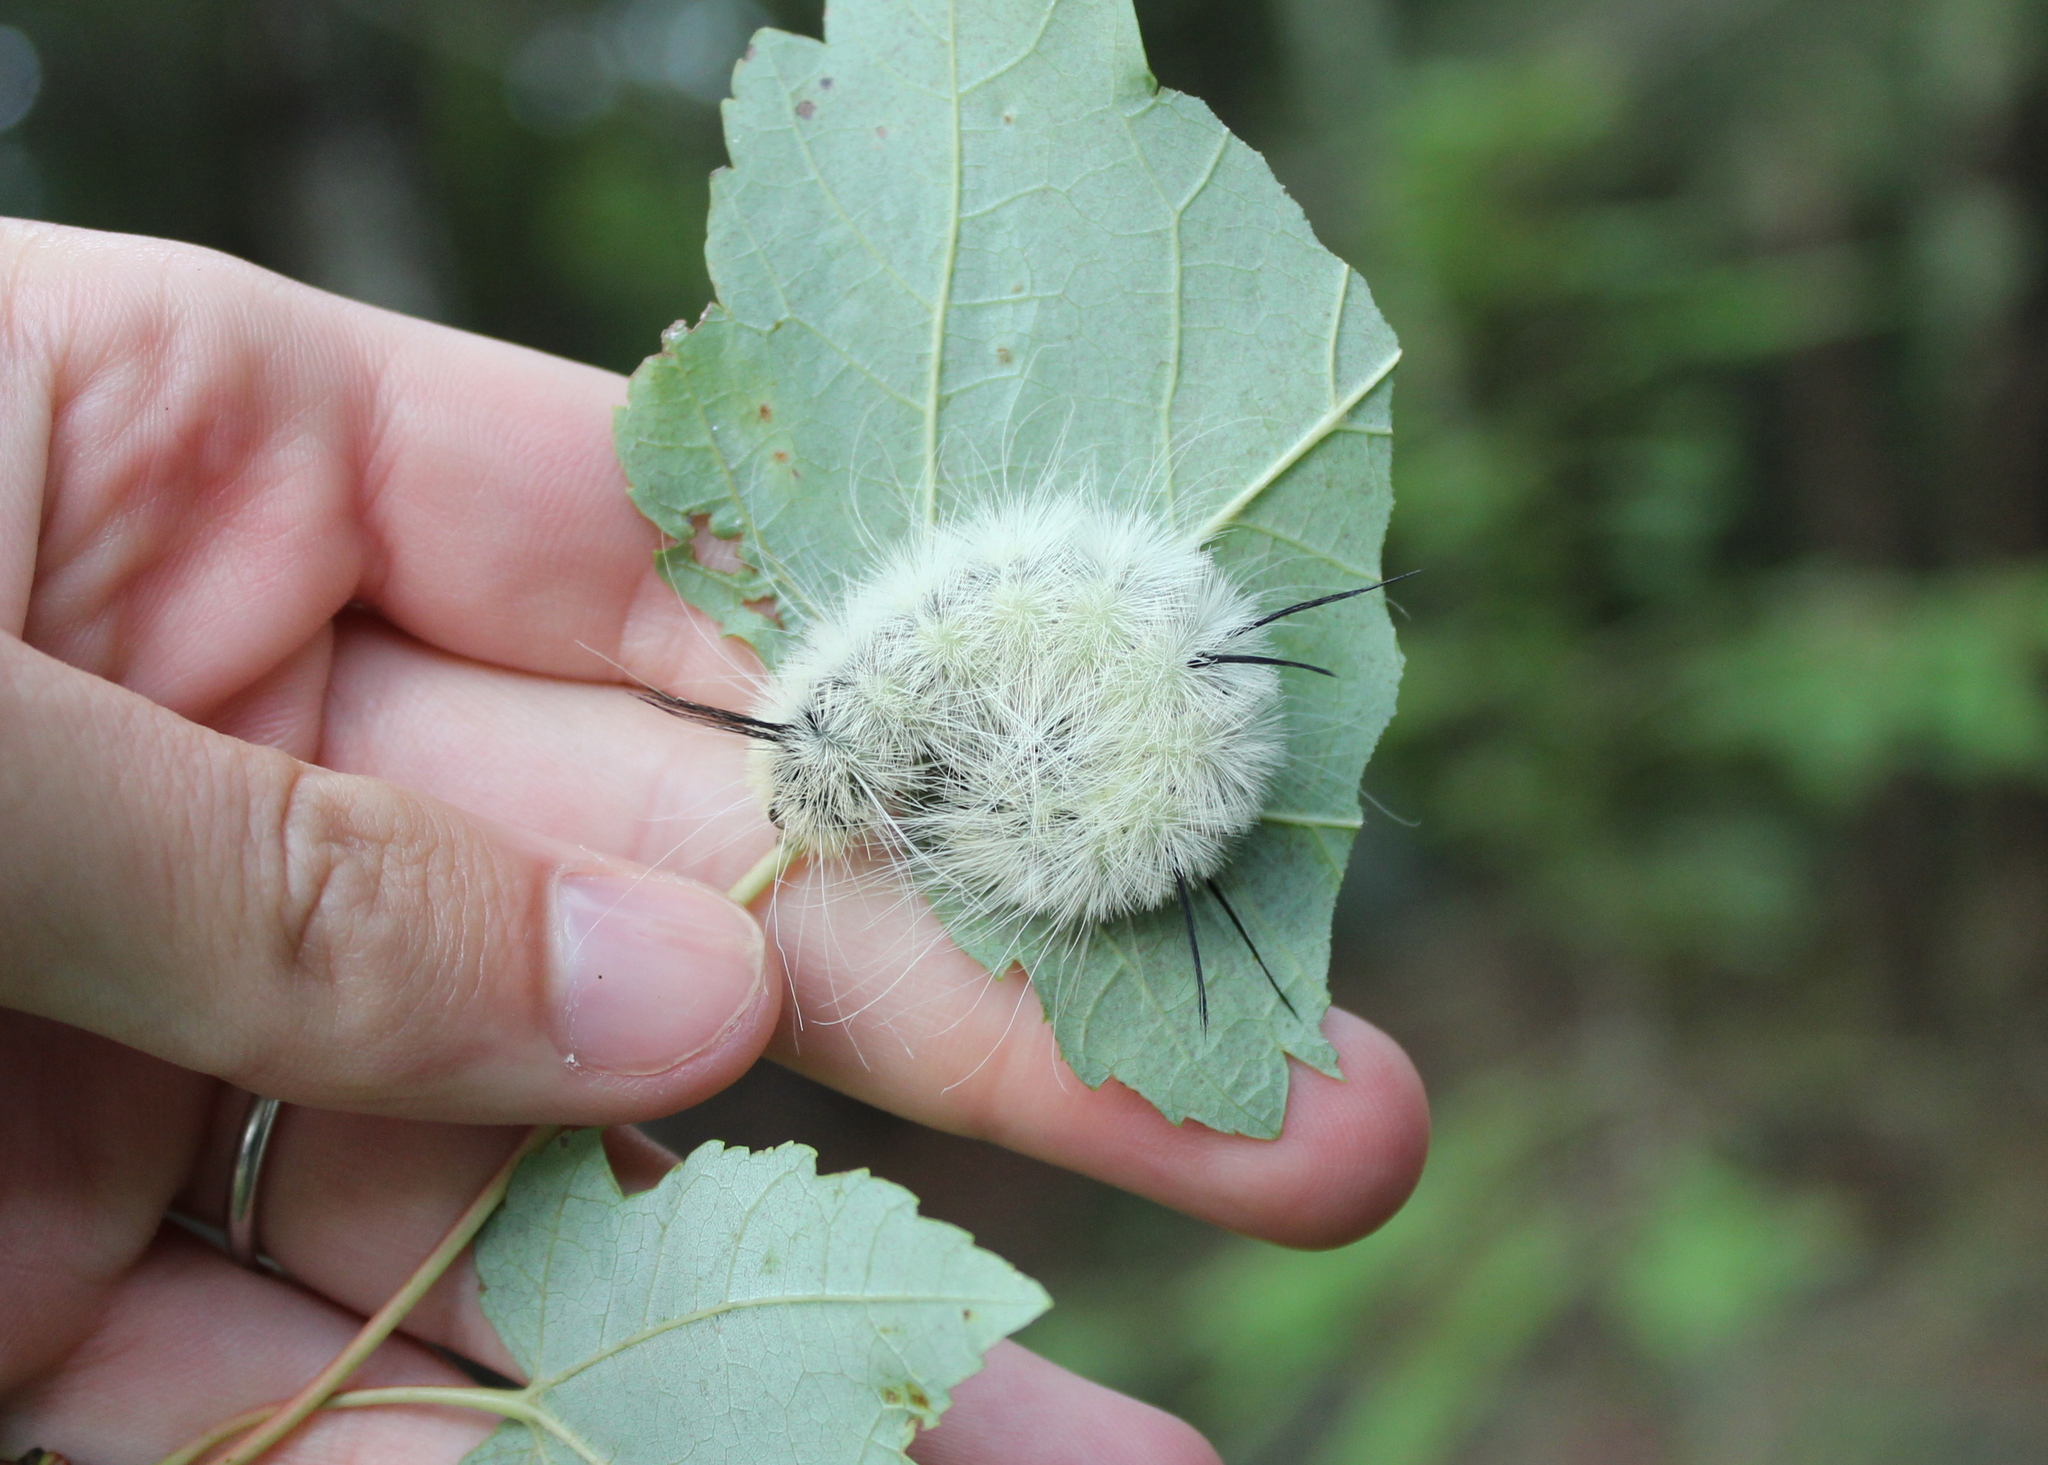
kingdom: Animalia
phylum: Arthropoda
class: Insecta
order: Lepidoptera
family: Noctuidae
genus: Acronicta
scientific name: Acronicta americana
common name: American dagger
